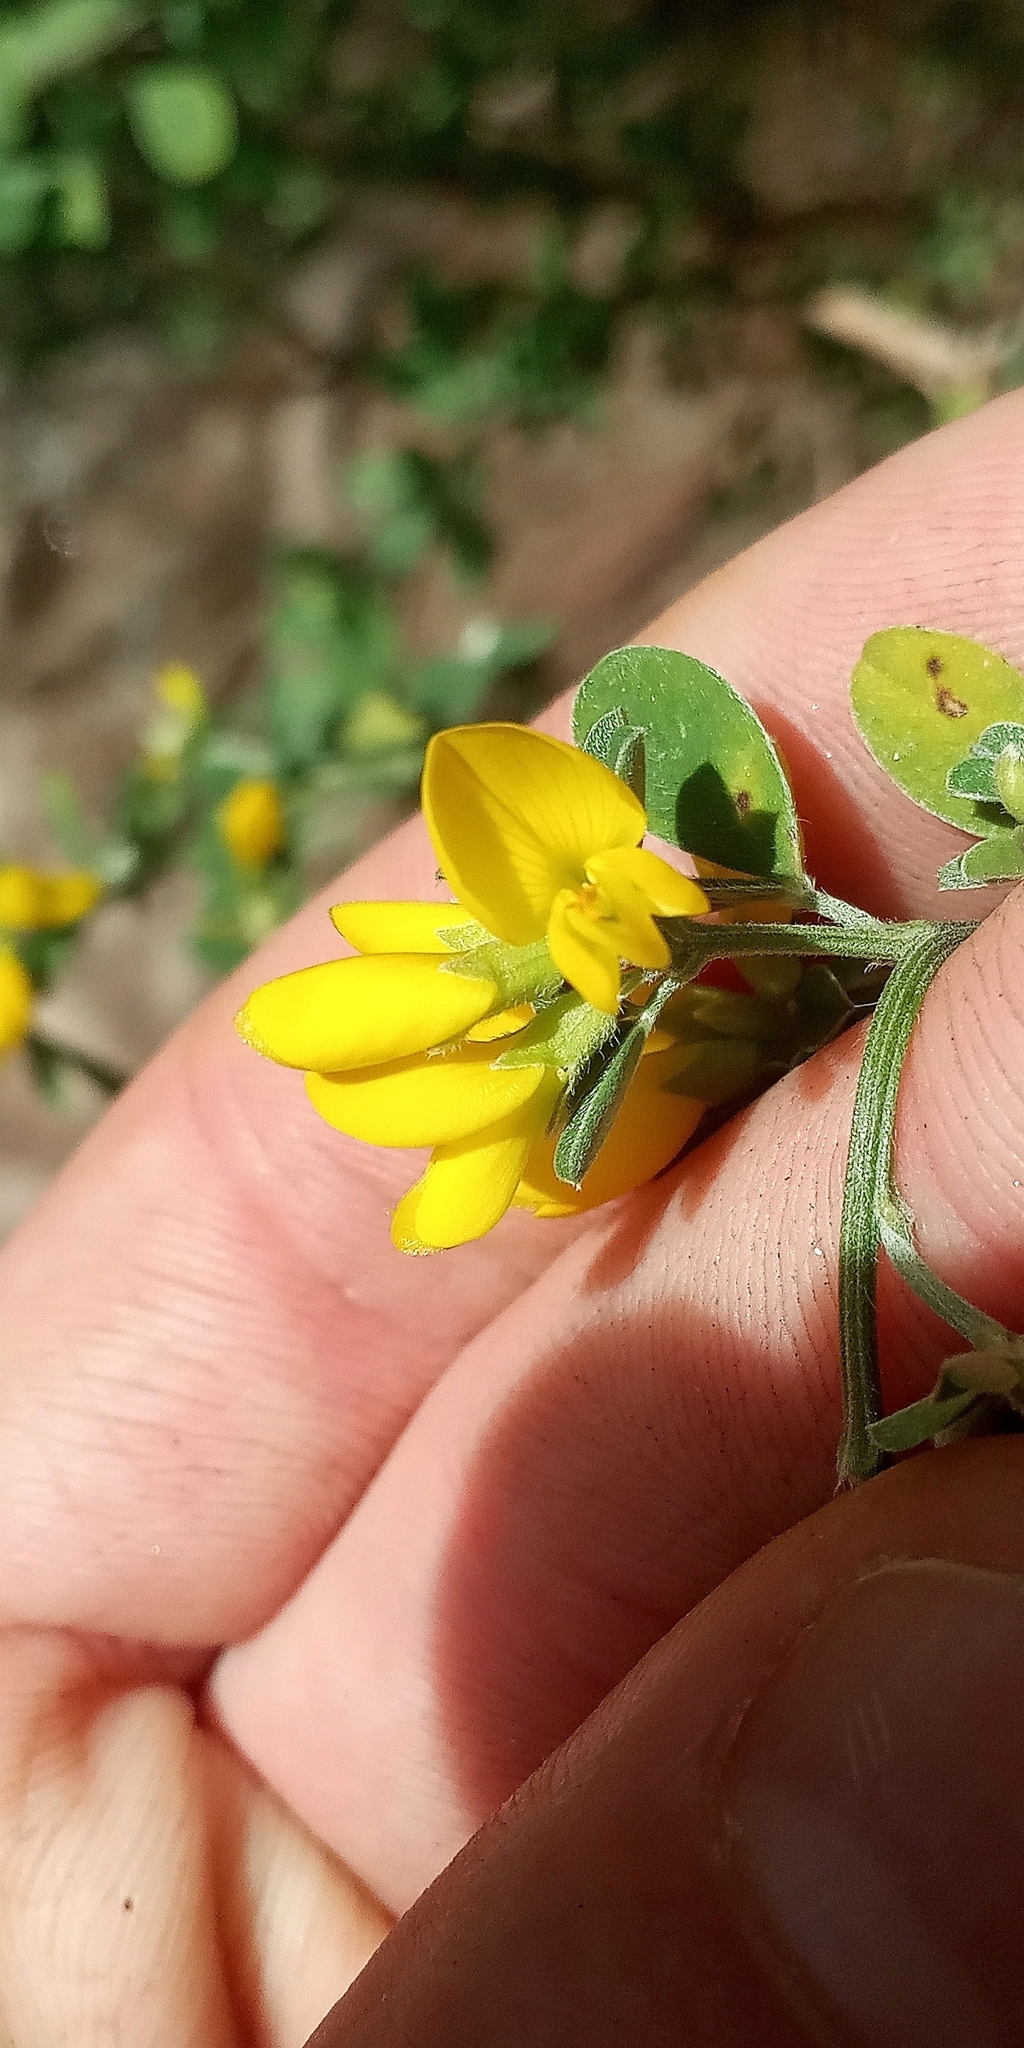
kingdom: Plantae
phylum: Tracheophyta
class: Magnoliopsida
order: Fabales
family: Fabaceae
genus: Genista
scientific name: Genista monspessulana
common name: Montpellier broom
